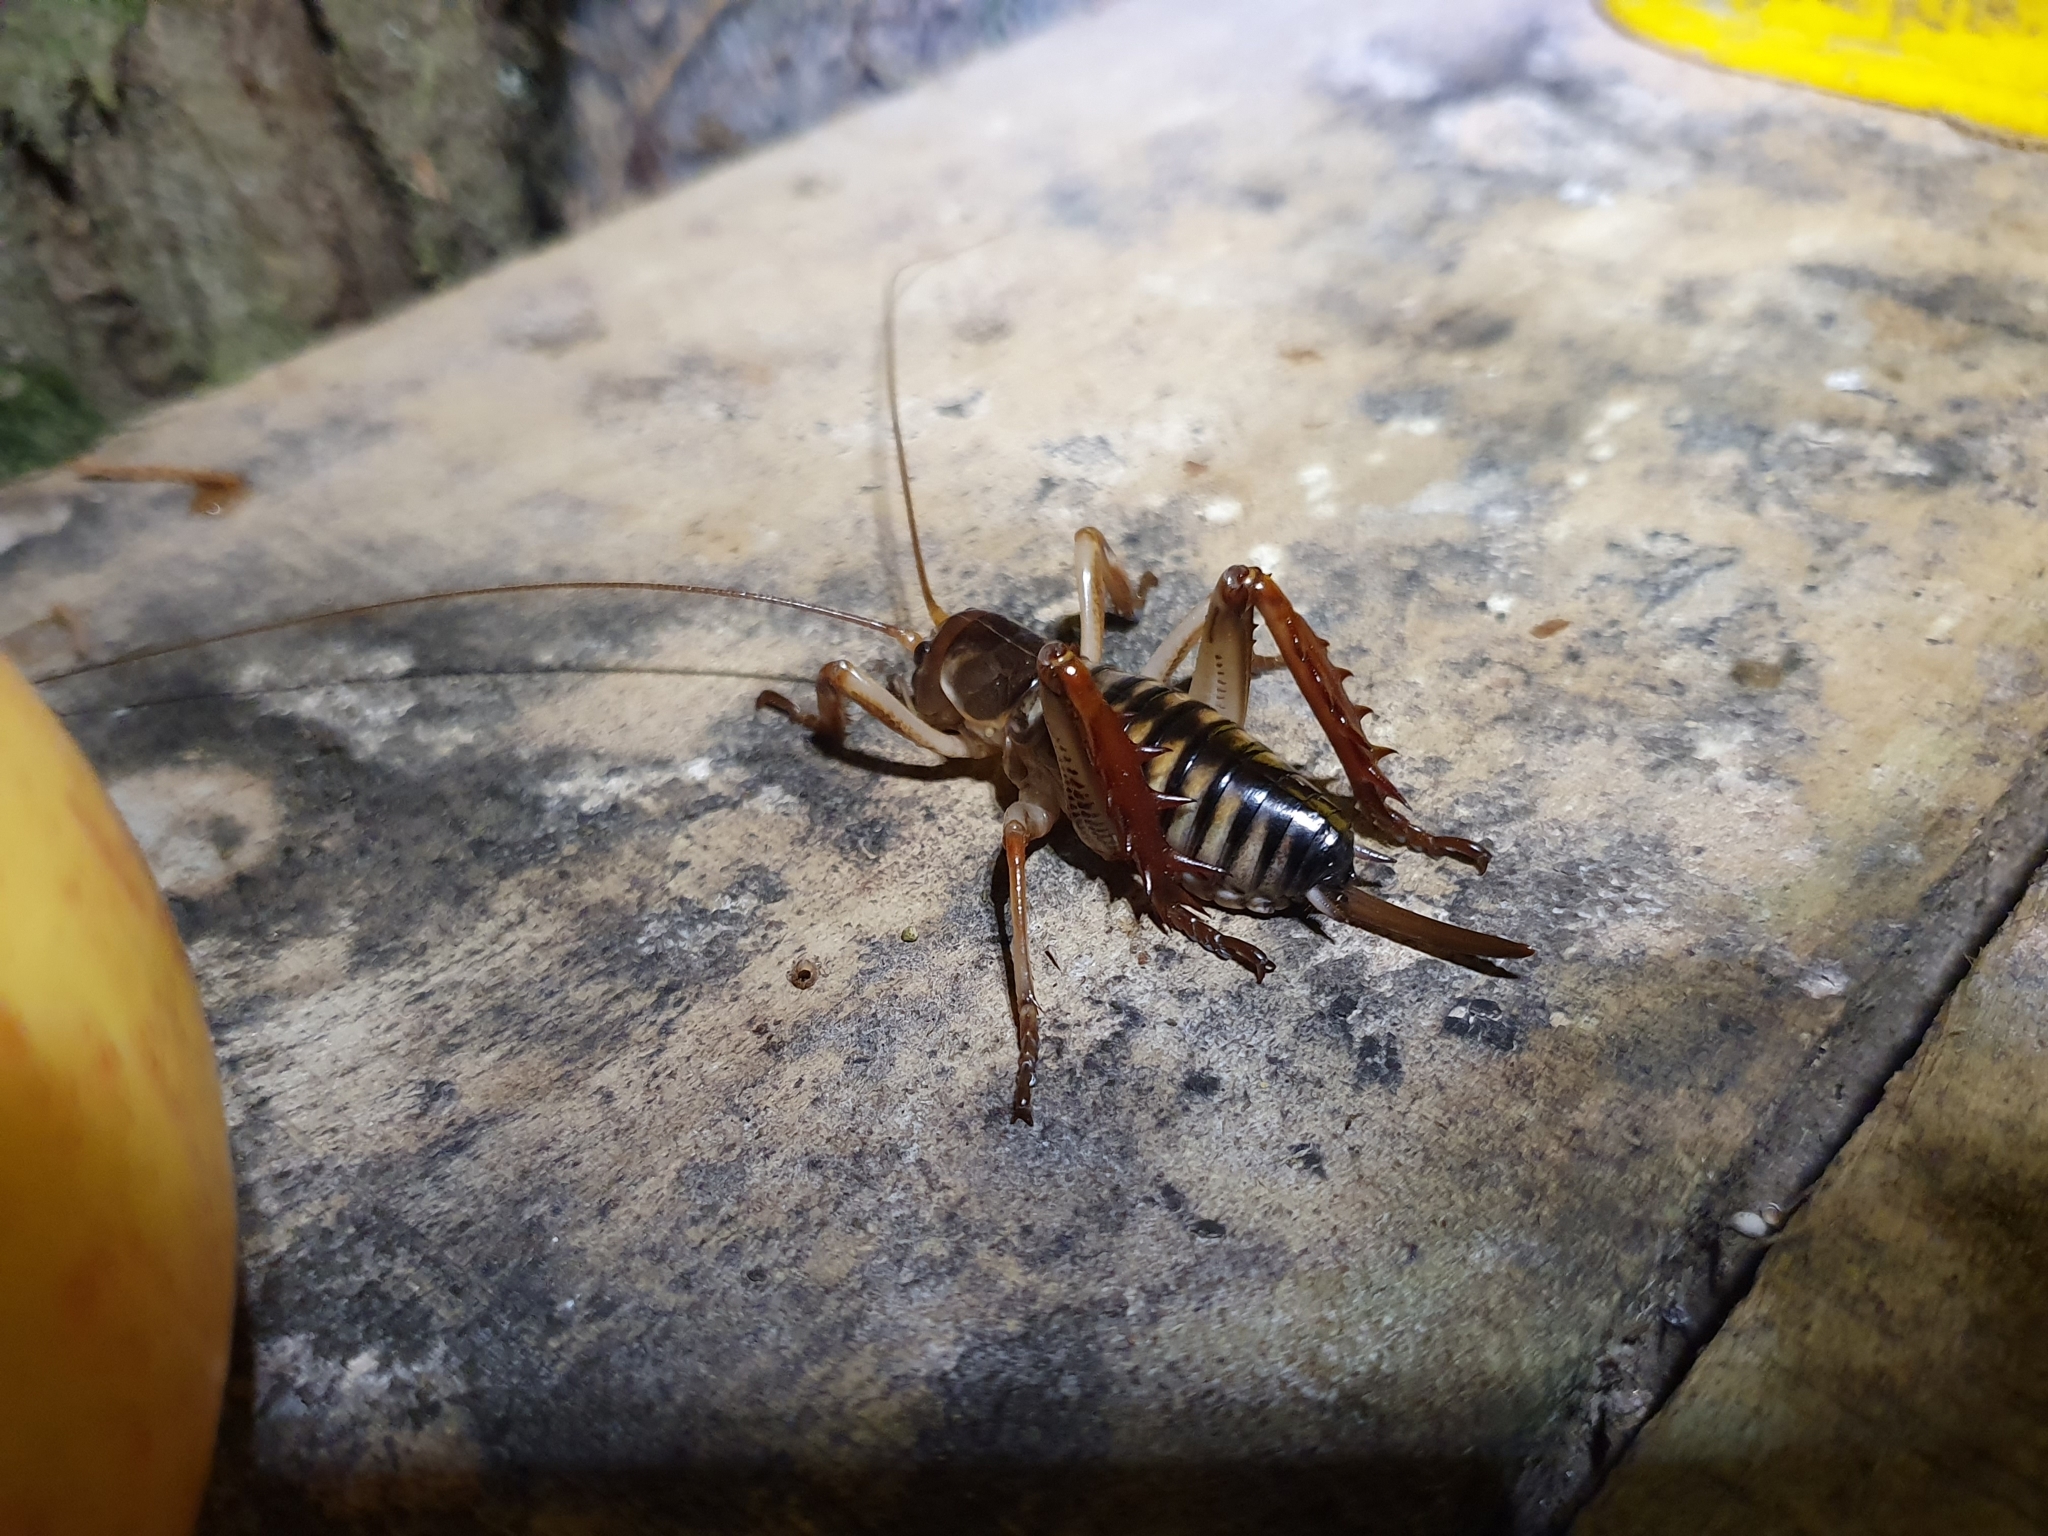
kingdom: Animalia
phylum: Arthropoda
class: Insecta
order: Orthoptera
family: Anostostomatidae
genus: Hemideina
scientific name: Hemideina crassidens
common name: Wellington tree weta
